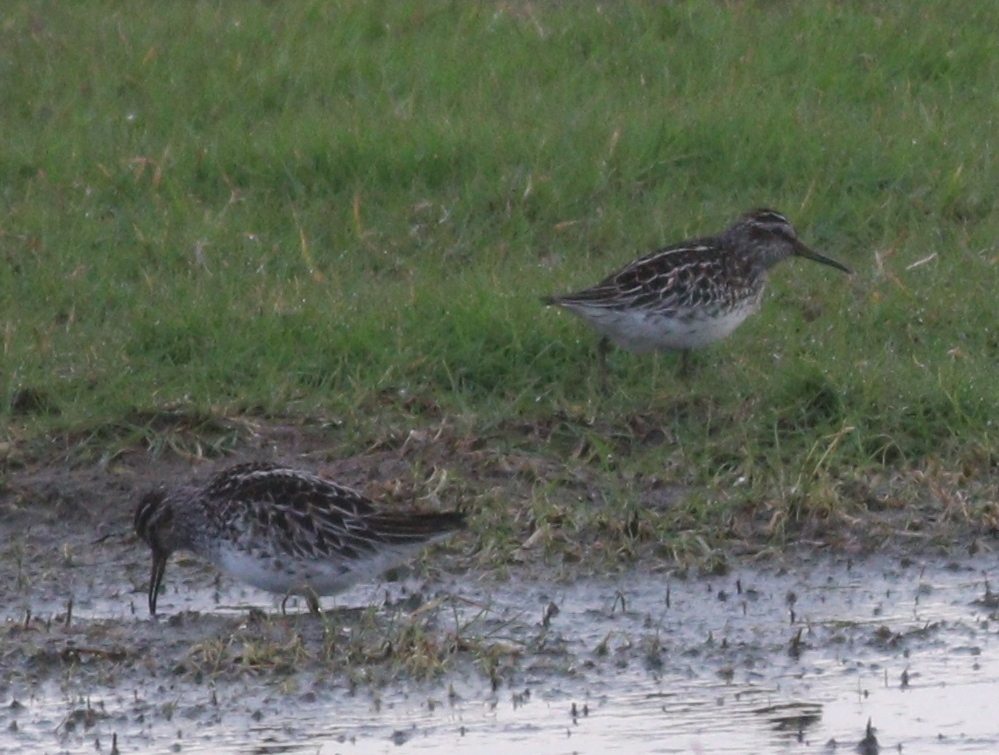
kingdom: Animalia
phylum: Chordata
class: Aves
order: Charadriiformes
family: Scolopacidae
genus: Calidris
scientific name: Calidris falcinellus
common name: Broad-billed sandpiper
